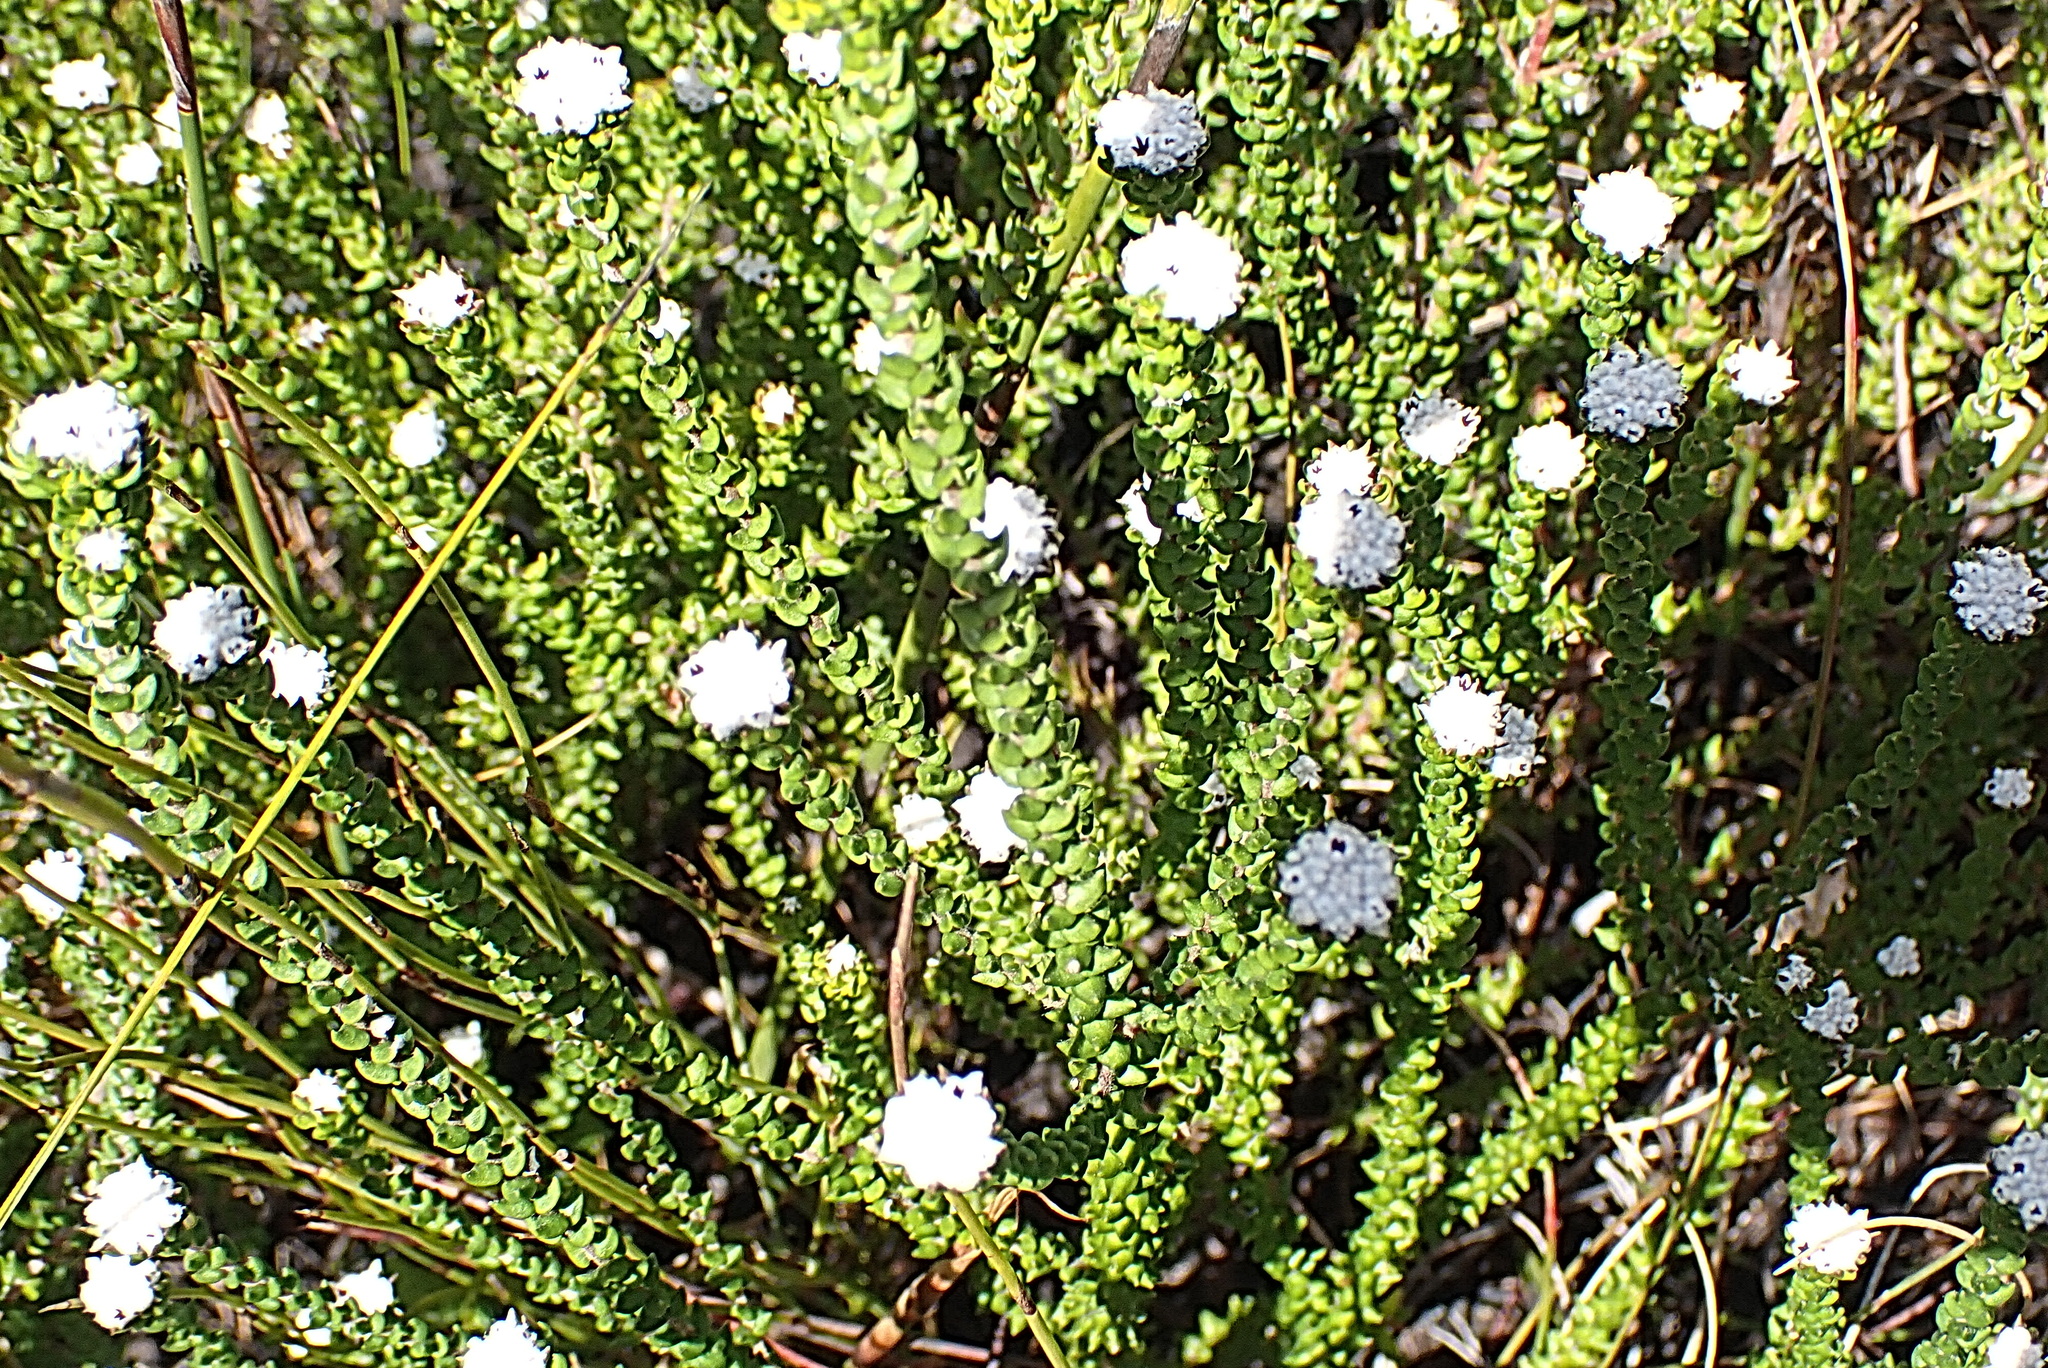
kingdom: Plantae
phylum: Tracheophyta
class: Magnoliopsida
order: Rosales
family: Rhamnaceae
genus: Phylica
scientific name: Phylica debilis
